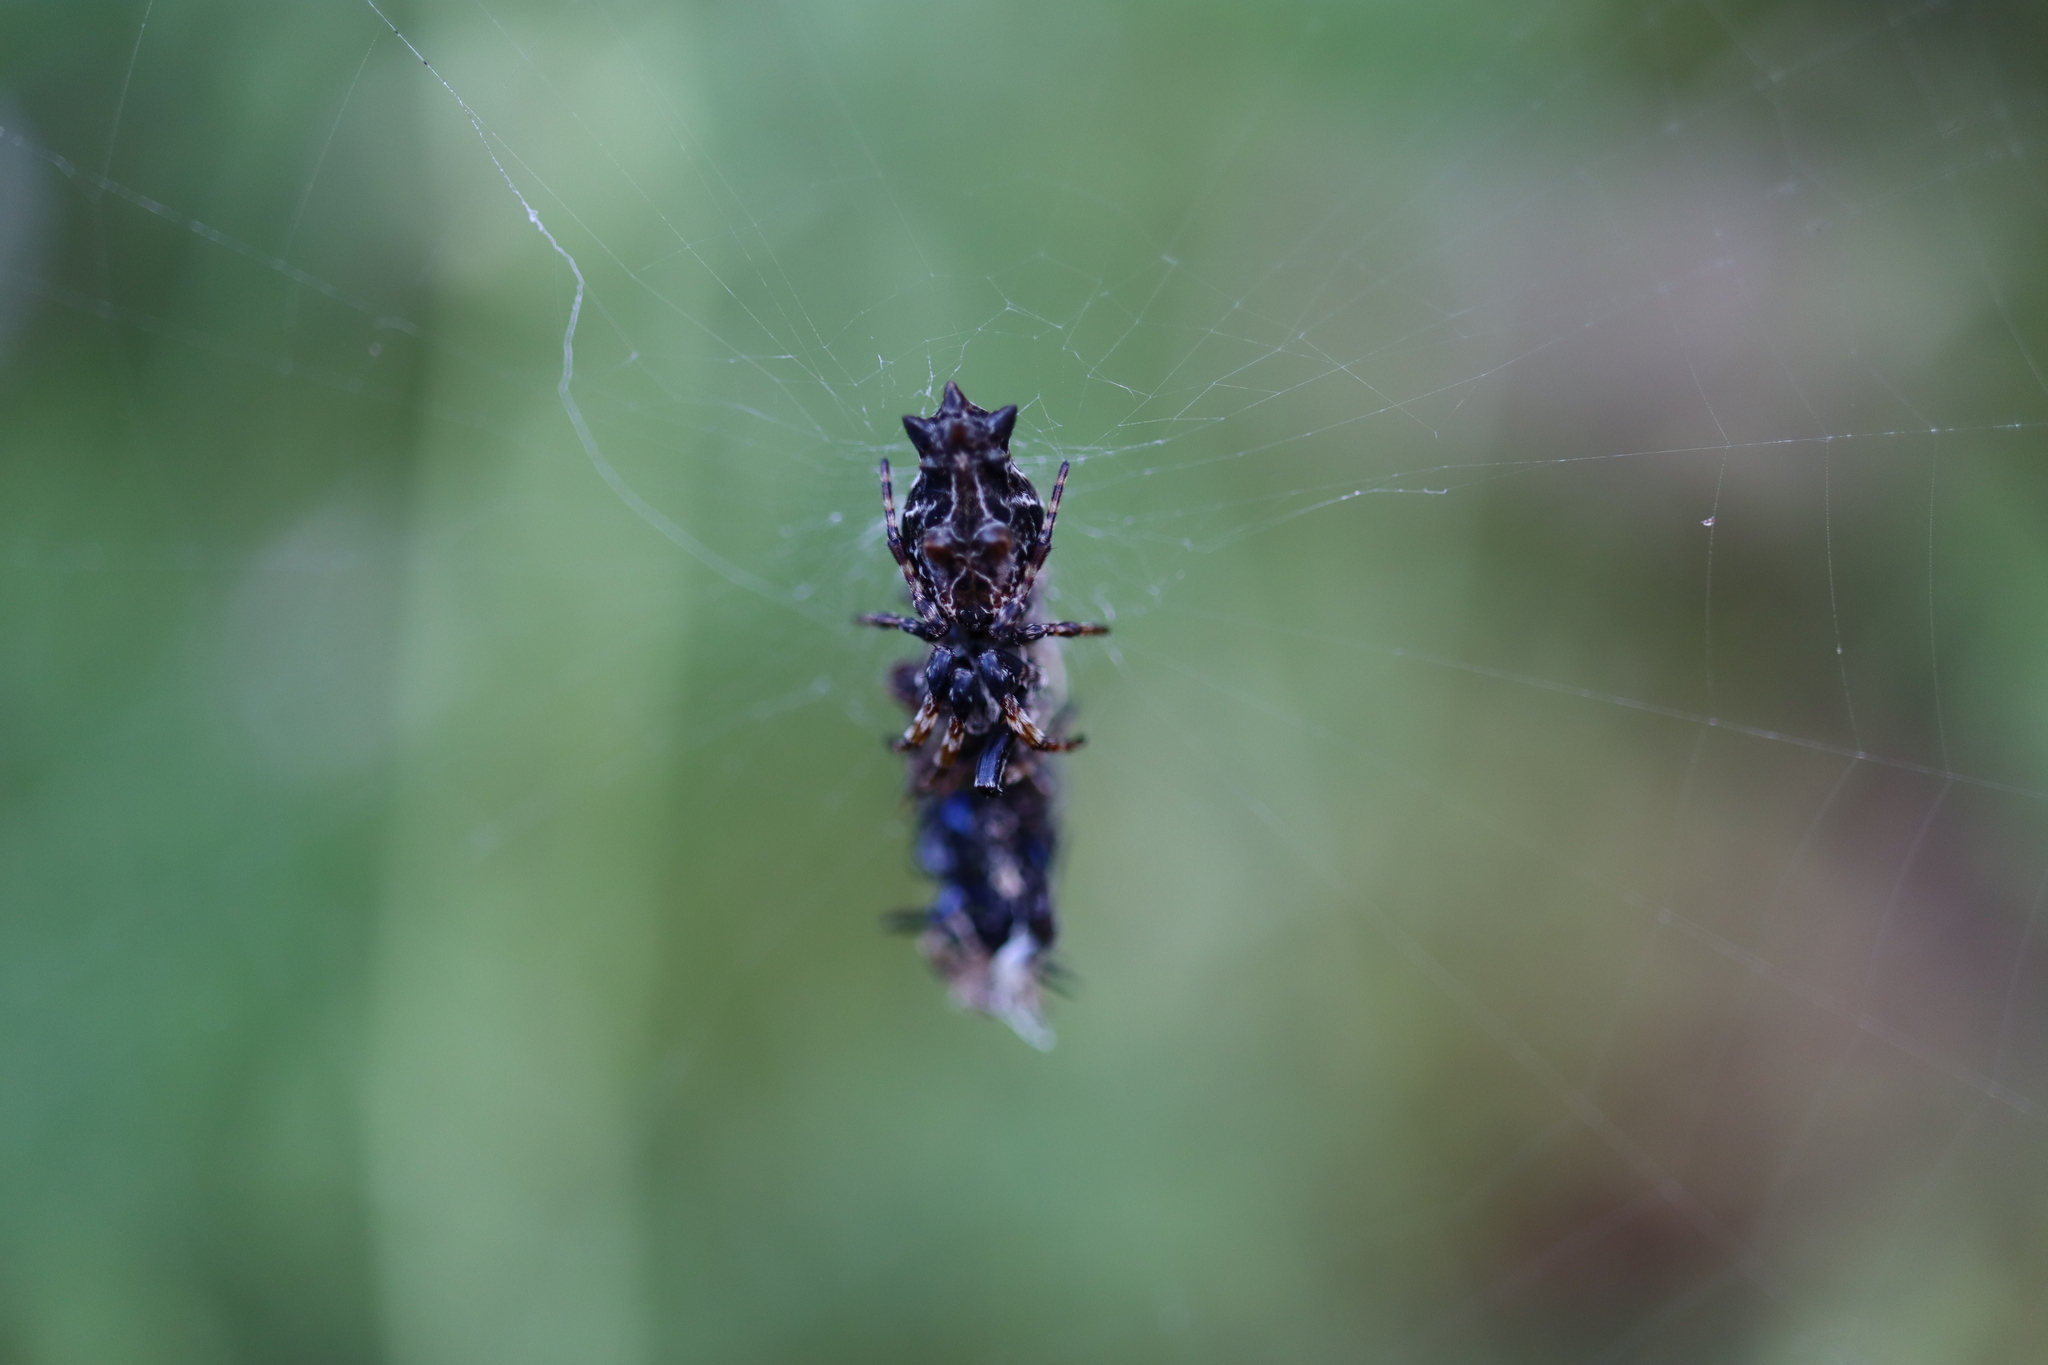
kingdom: Animalia
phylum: Arthropoda
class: Arachnida
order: Araneae
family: Araneidae
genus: Cyclosa
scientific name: Cyclosa octotuberculata
